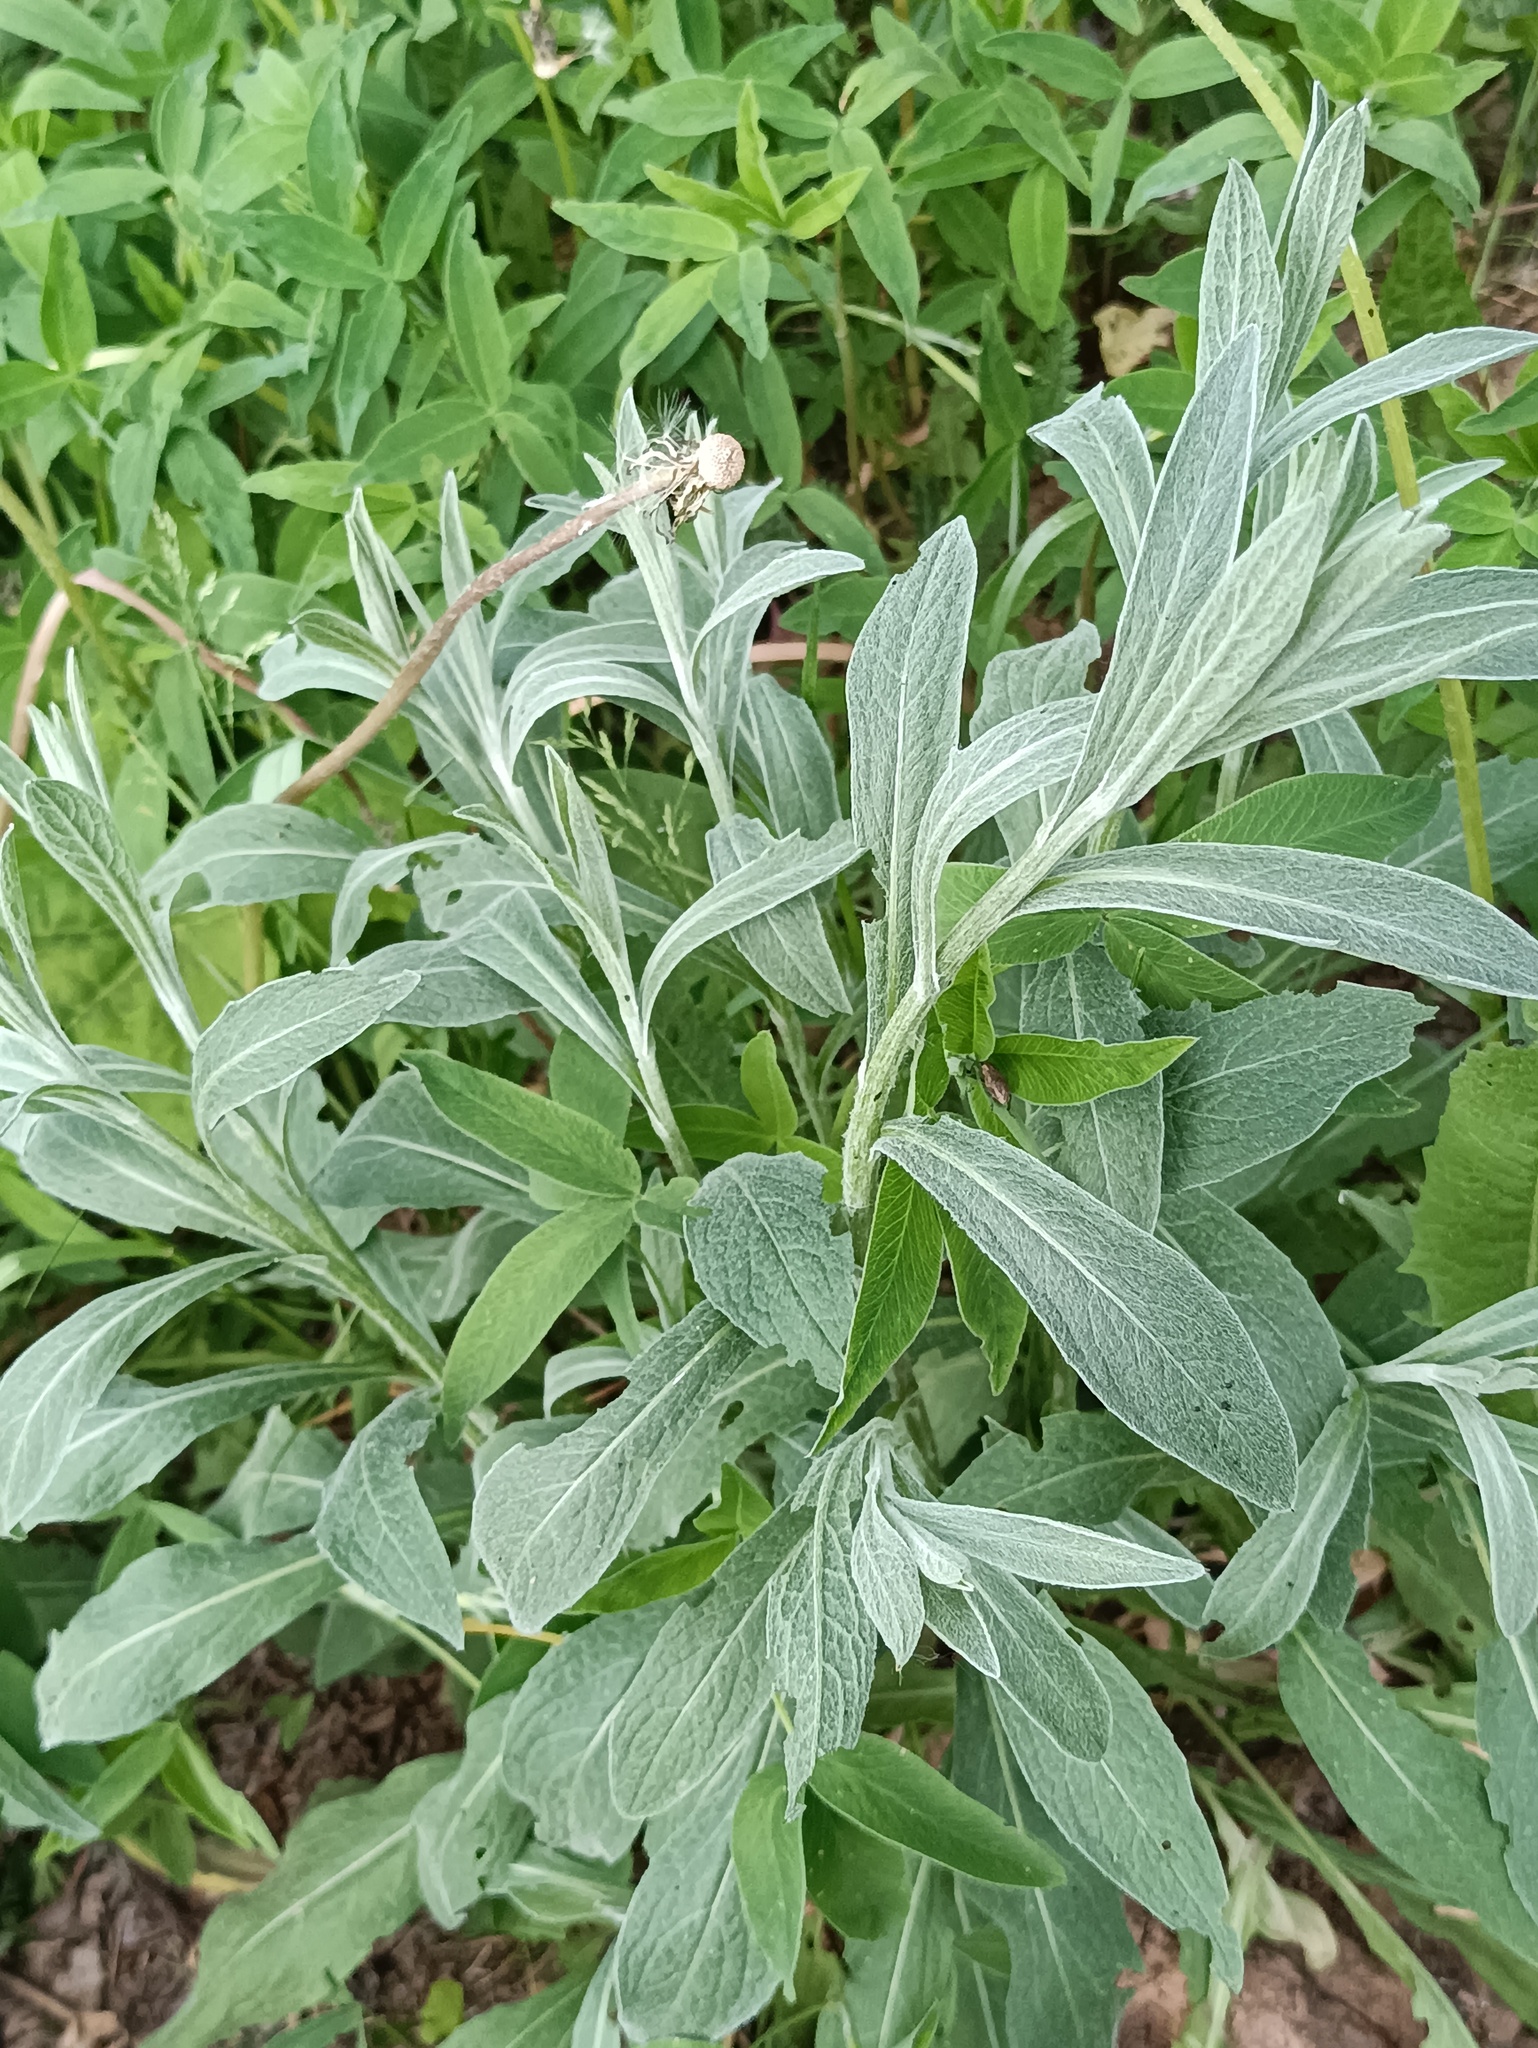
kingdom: Plantae
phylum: Tracheophyta
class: Magnoliopsida
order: Asterales
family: Asteraceae
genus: Centaurea
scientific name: Centaurea jacea
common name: Brown knapweed
